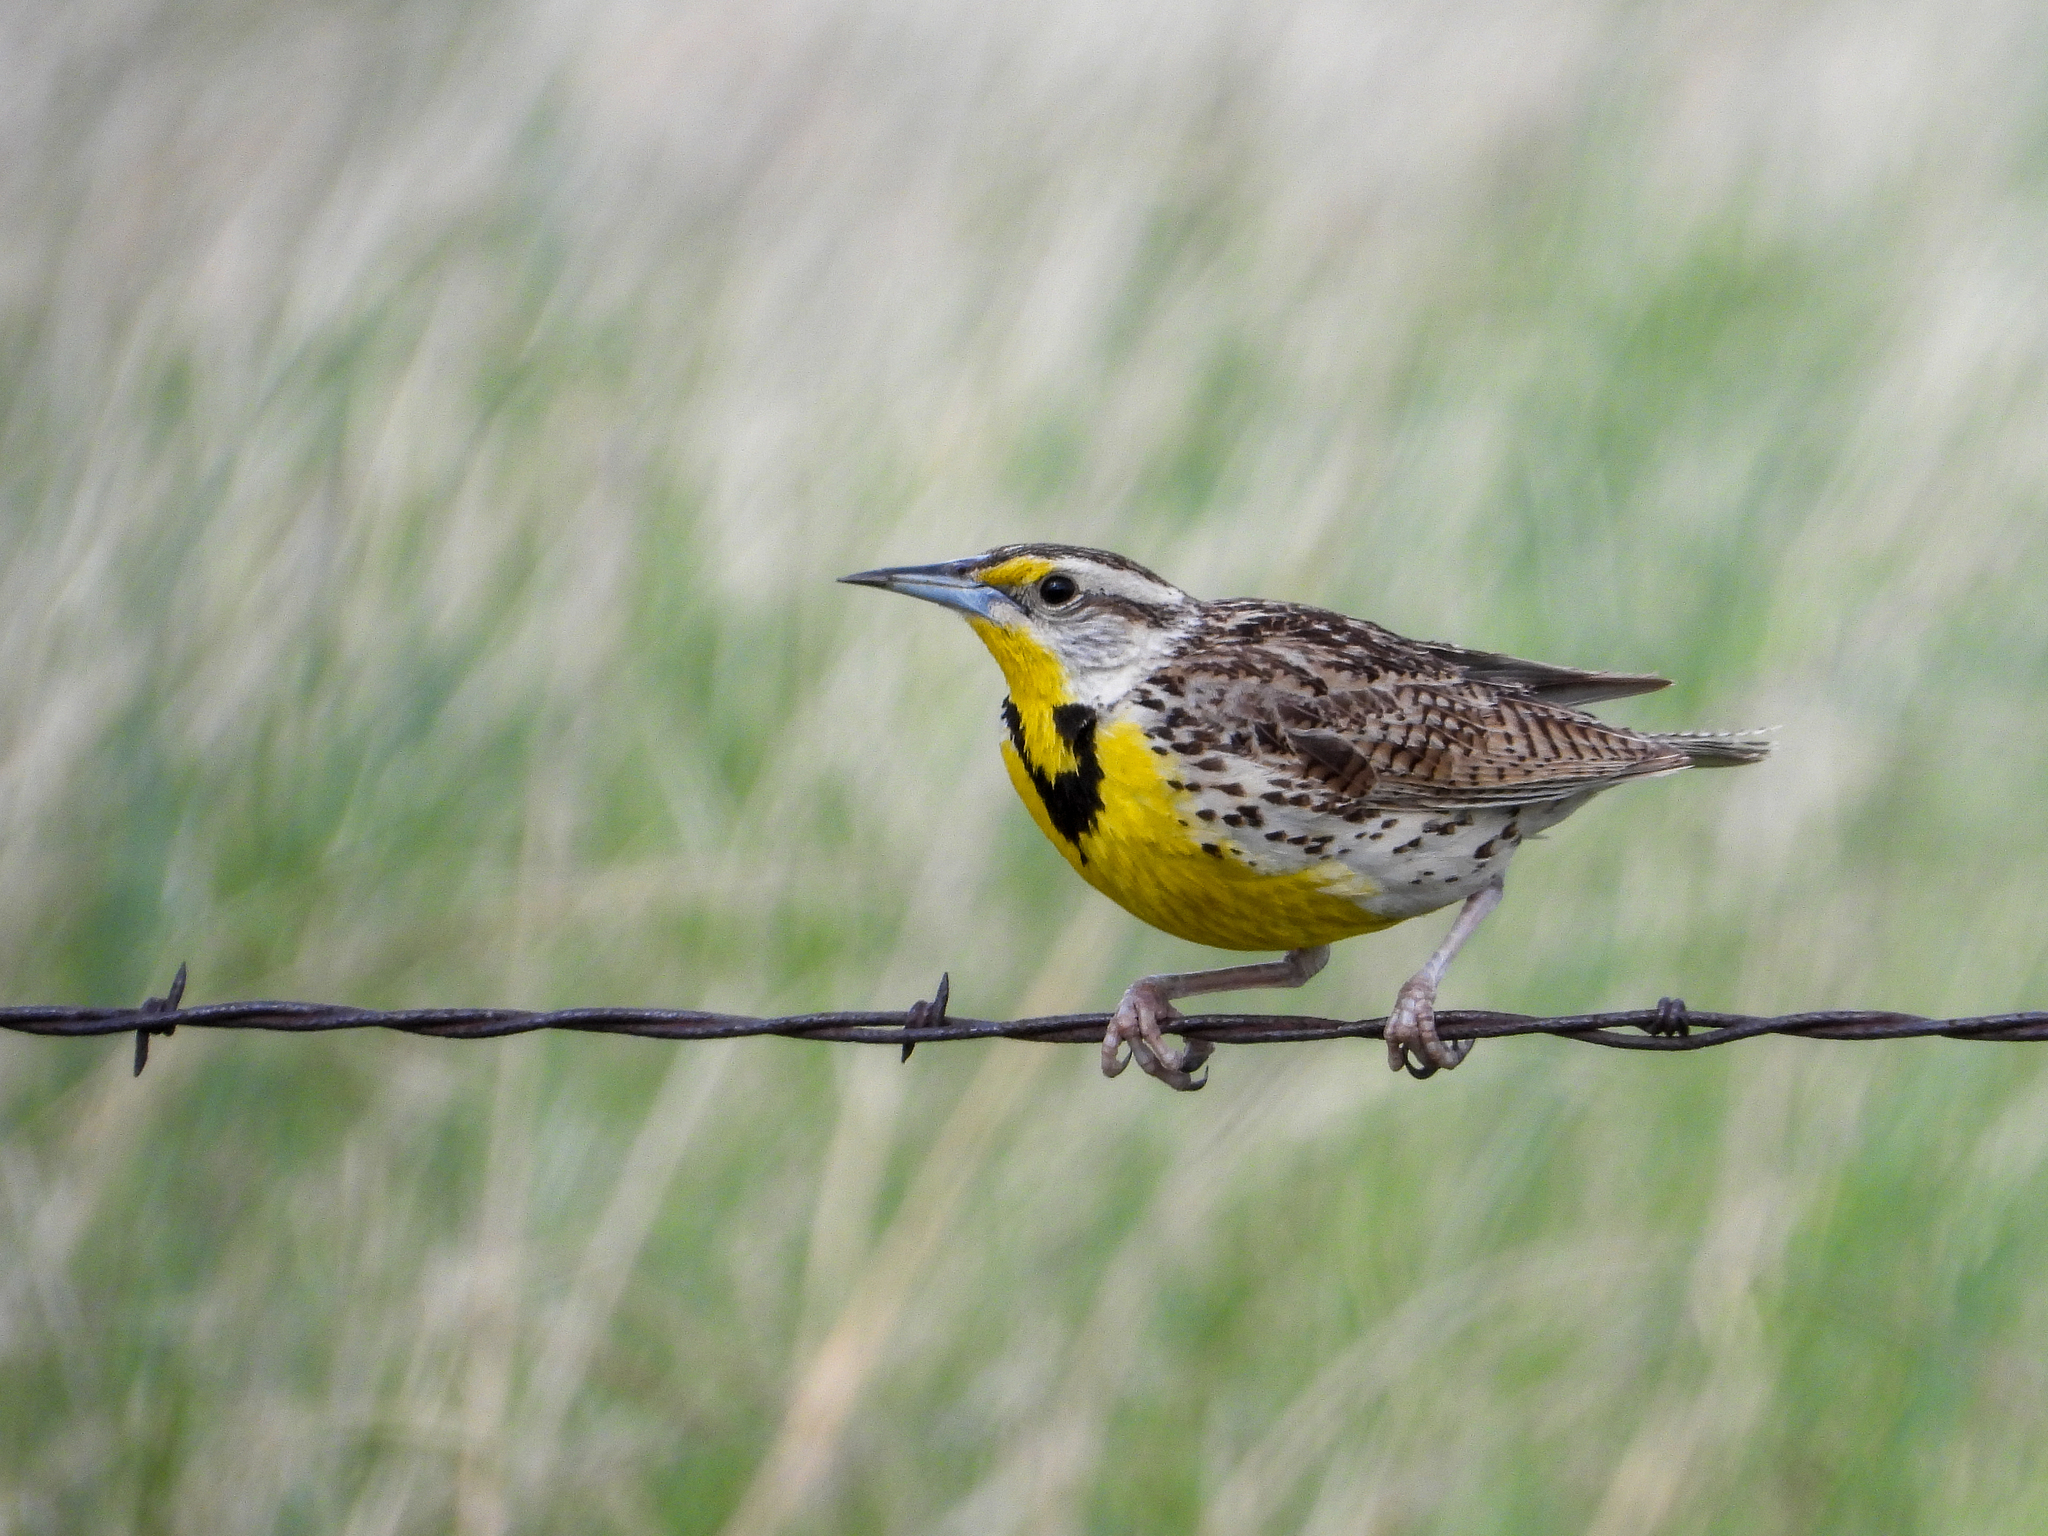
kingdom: Animalia
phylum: Chordata
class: Aves
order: Passeriformes
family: Icteridae
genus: Sturnella
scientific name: Sturnella neglecta
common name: Western meadowlark
